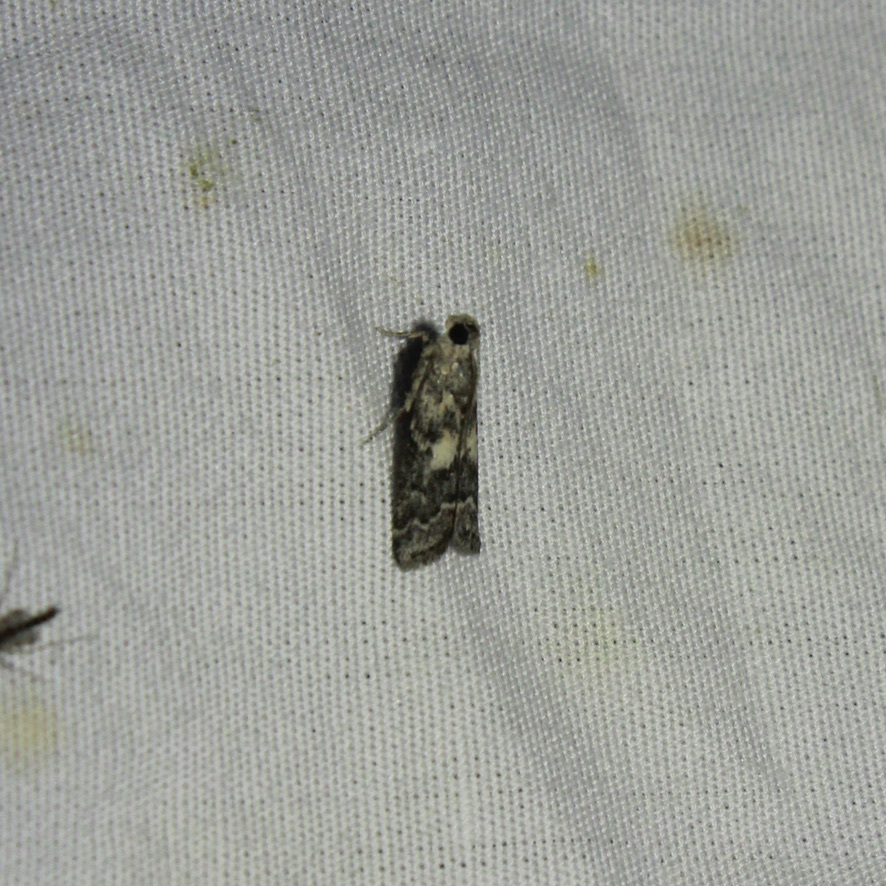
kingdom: Animalia
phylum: Arthropoda
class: Insecta
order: Lepidoptera
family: Pyralidae
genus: Tacoma
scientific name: Tacoma feriella
